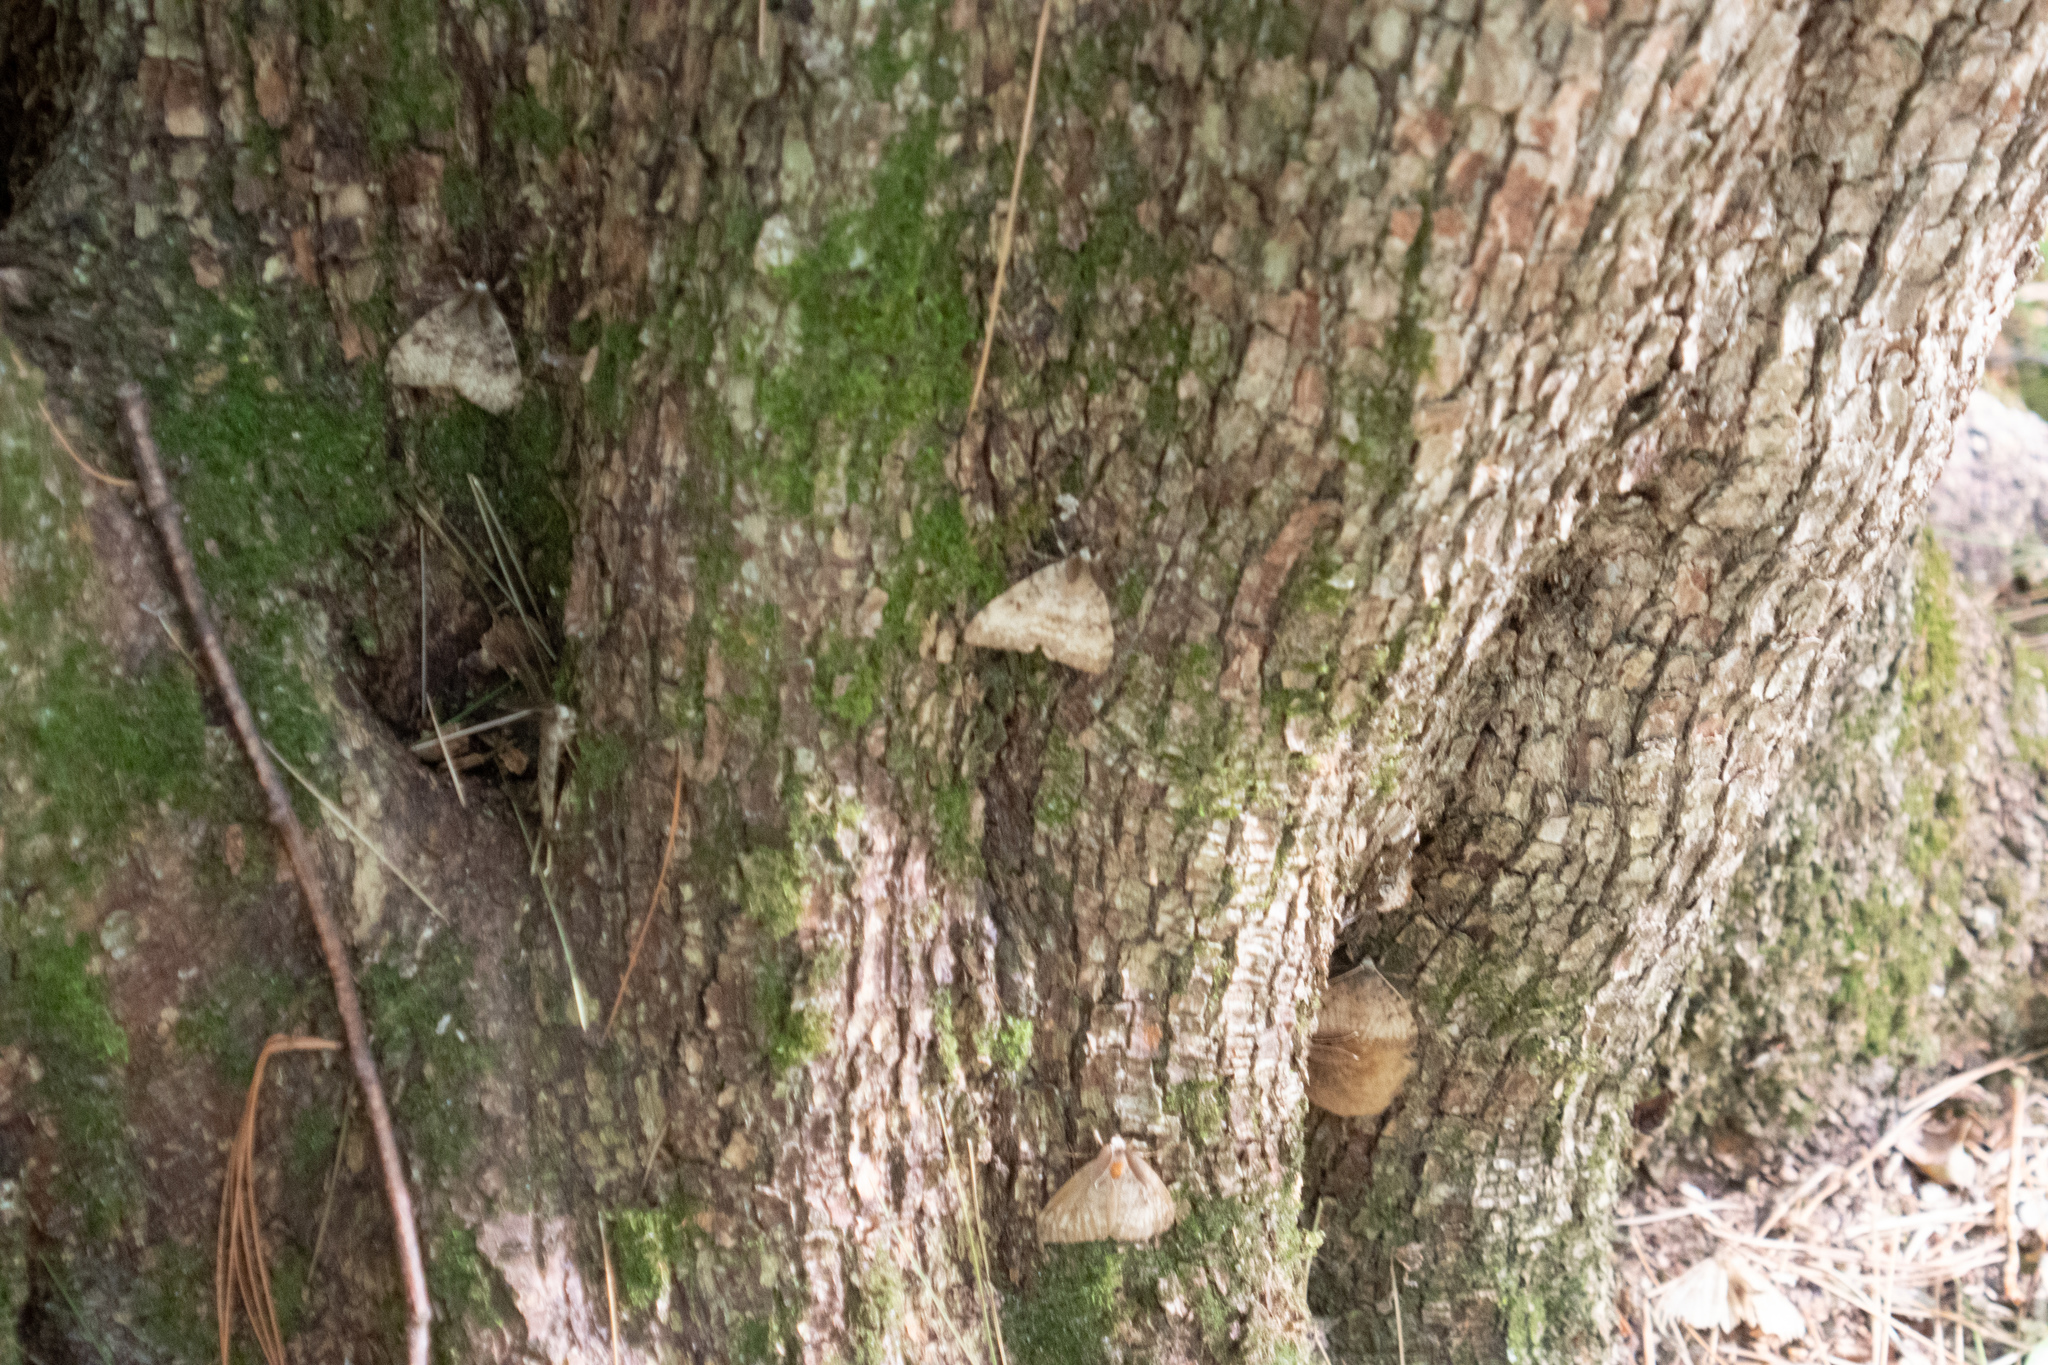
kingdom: Animalia
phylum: Arthropoda
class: Insecta
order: Lepidoptera
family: Erebidae
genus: Lymantria
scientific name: Lymantria dispar
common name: Gypsy moth
